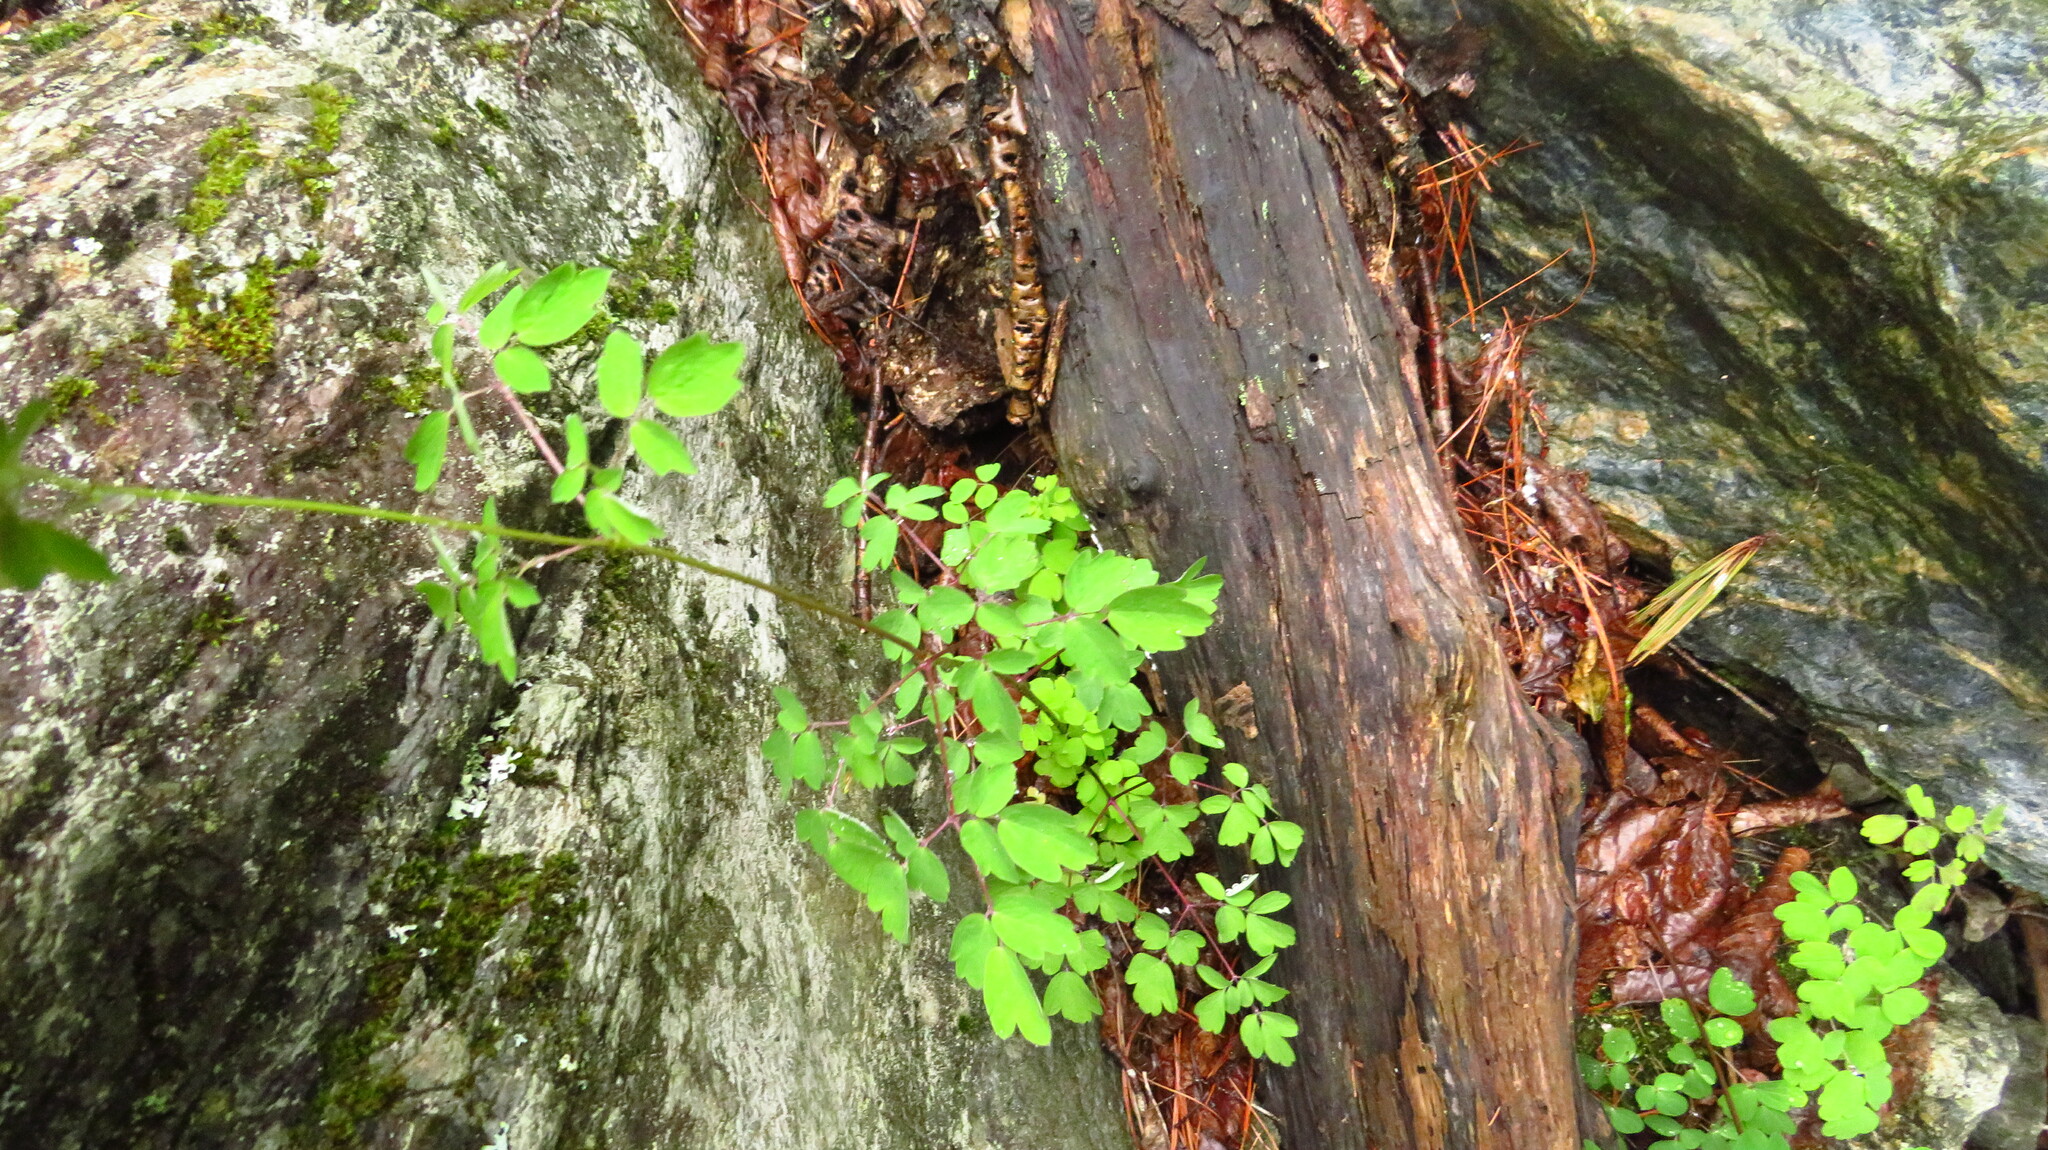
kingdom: Plantae
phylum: Tracheophyta
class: Magnoliopsida
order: Ranunculales
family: Ranunculaceae
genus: Thalictrum
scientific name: Thalictrum pubescens
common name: King-of-the-meadow
